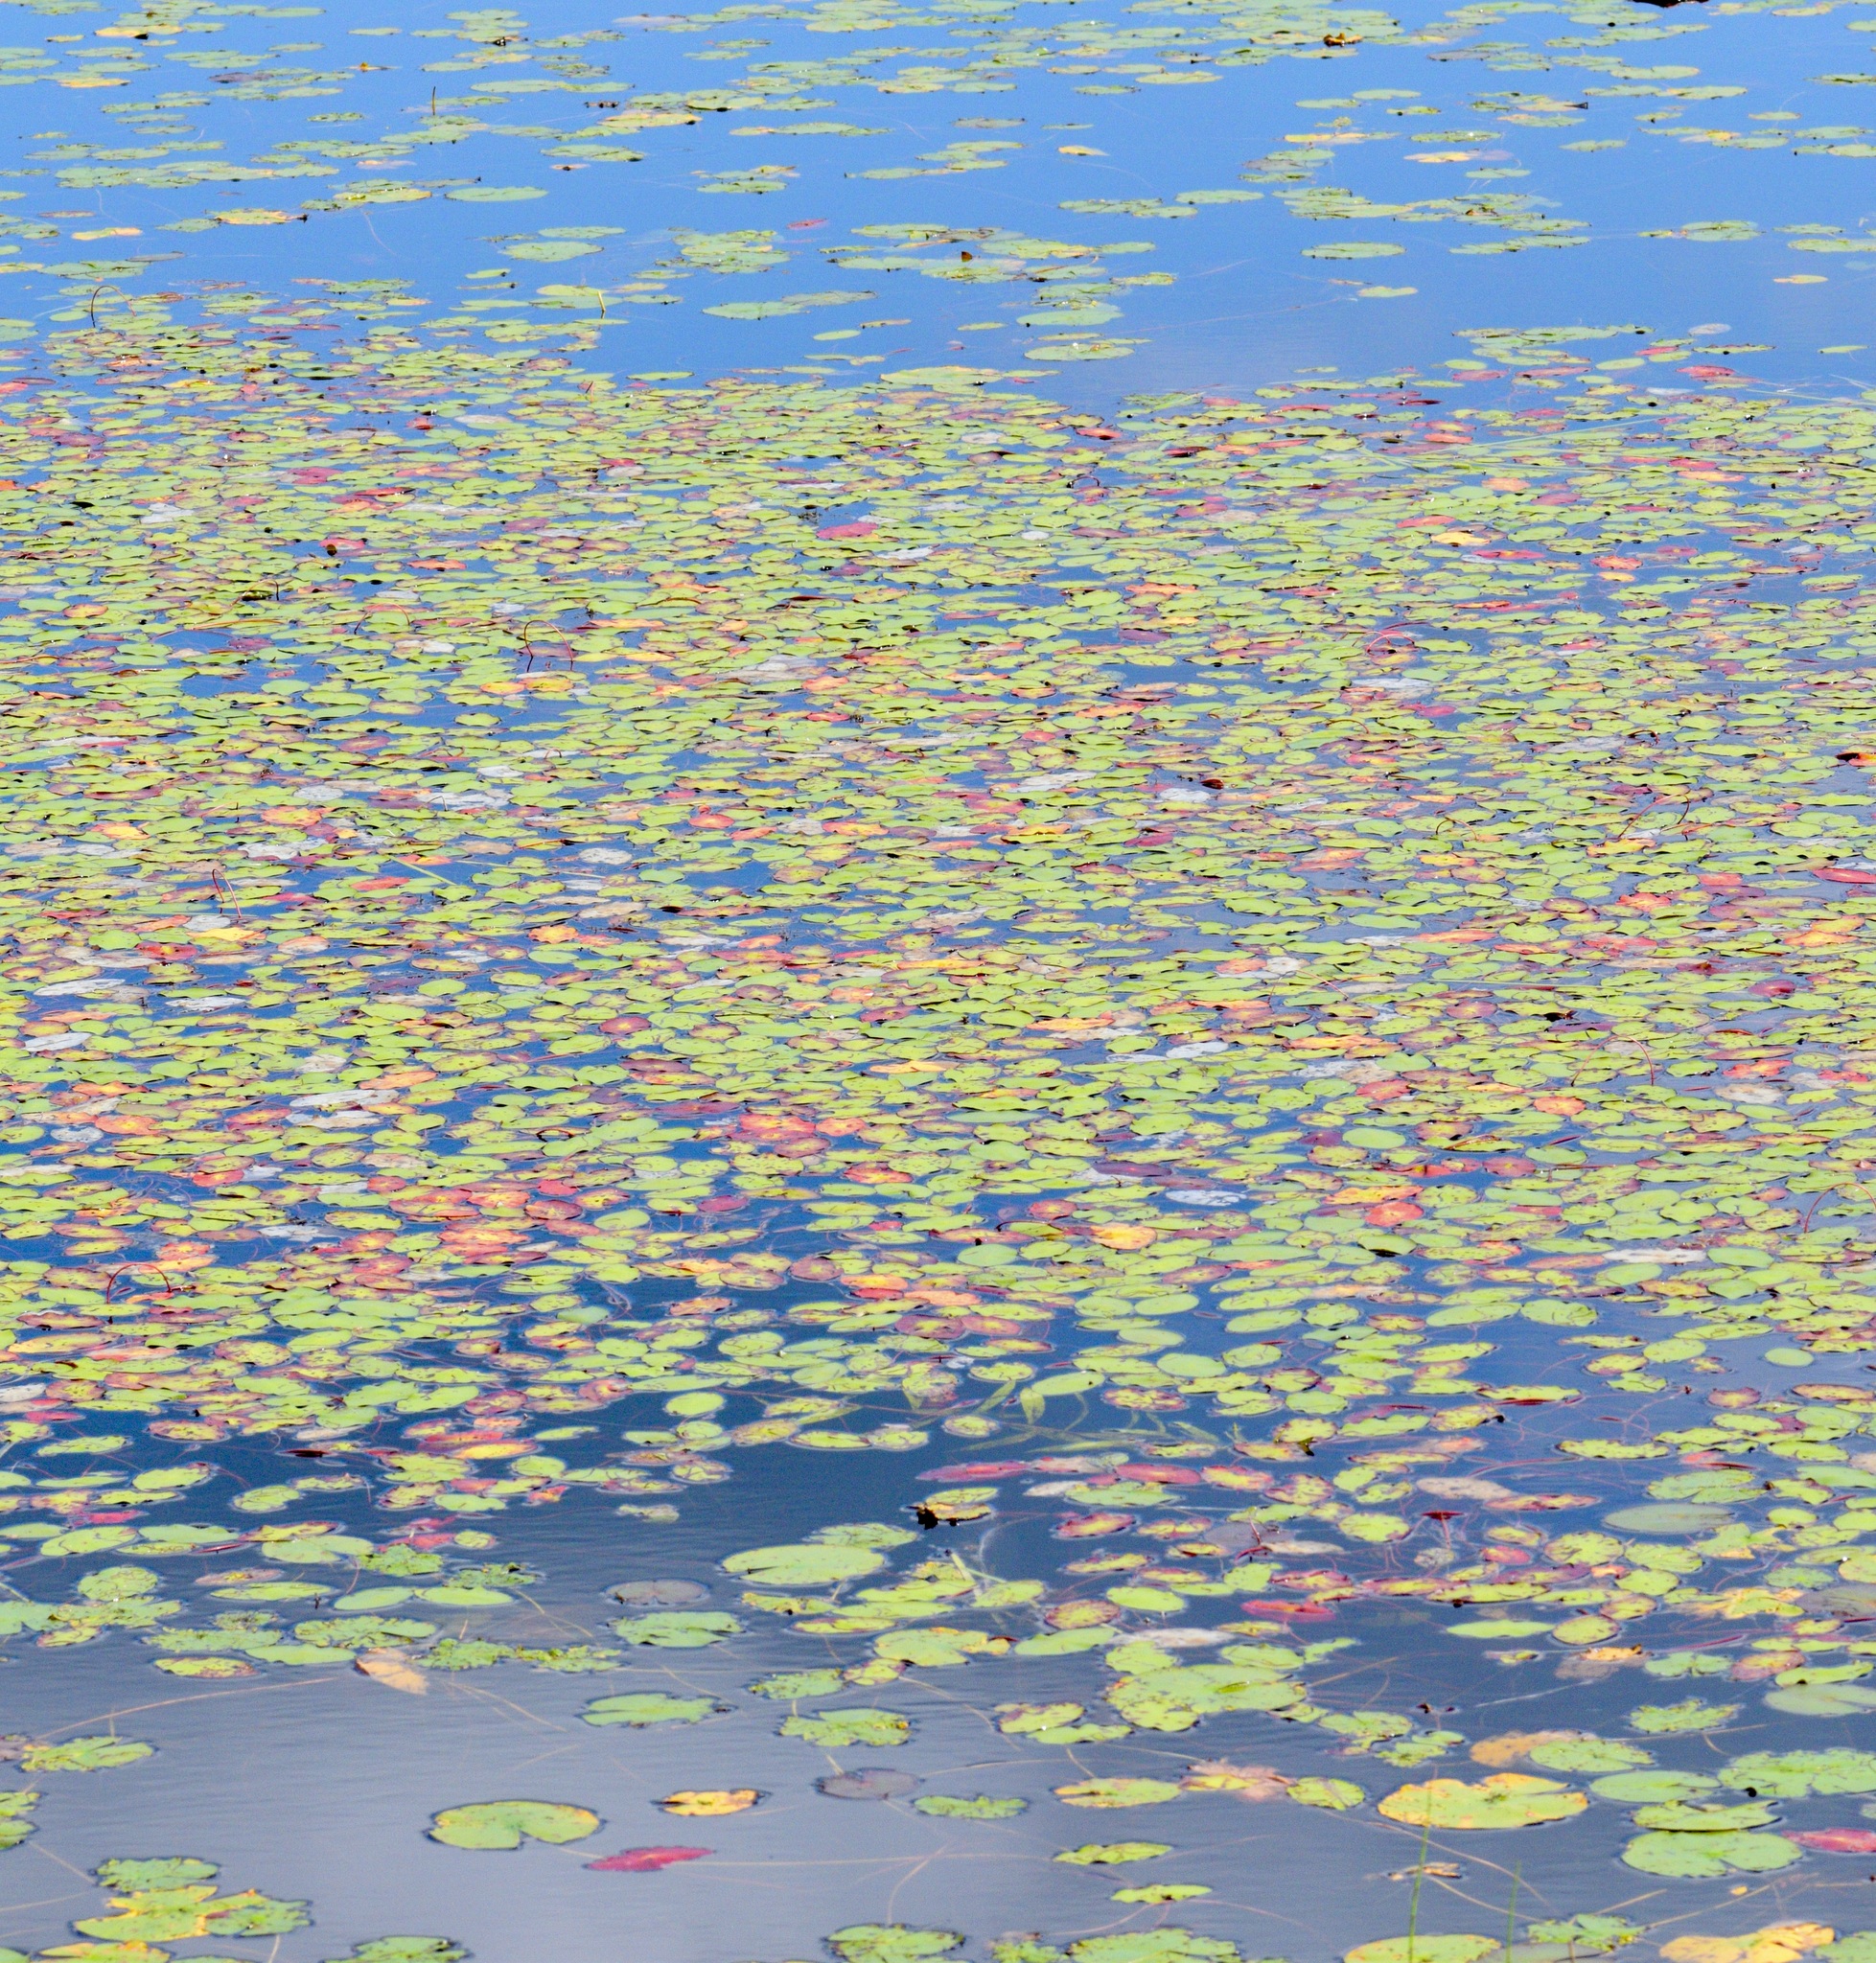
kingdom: Plantae
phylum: Tracheophyta
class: Magnoliopsida
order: Nymphaeales
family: Cabombaceae
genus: Brasenia
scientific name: Brasenia schreberi
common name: Water-shield
